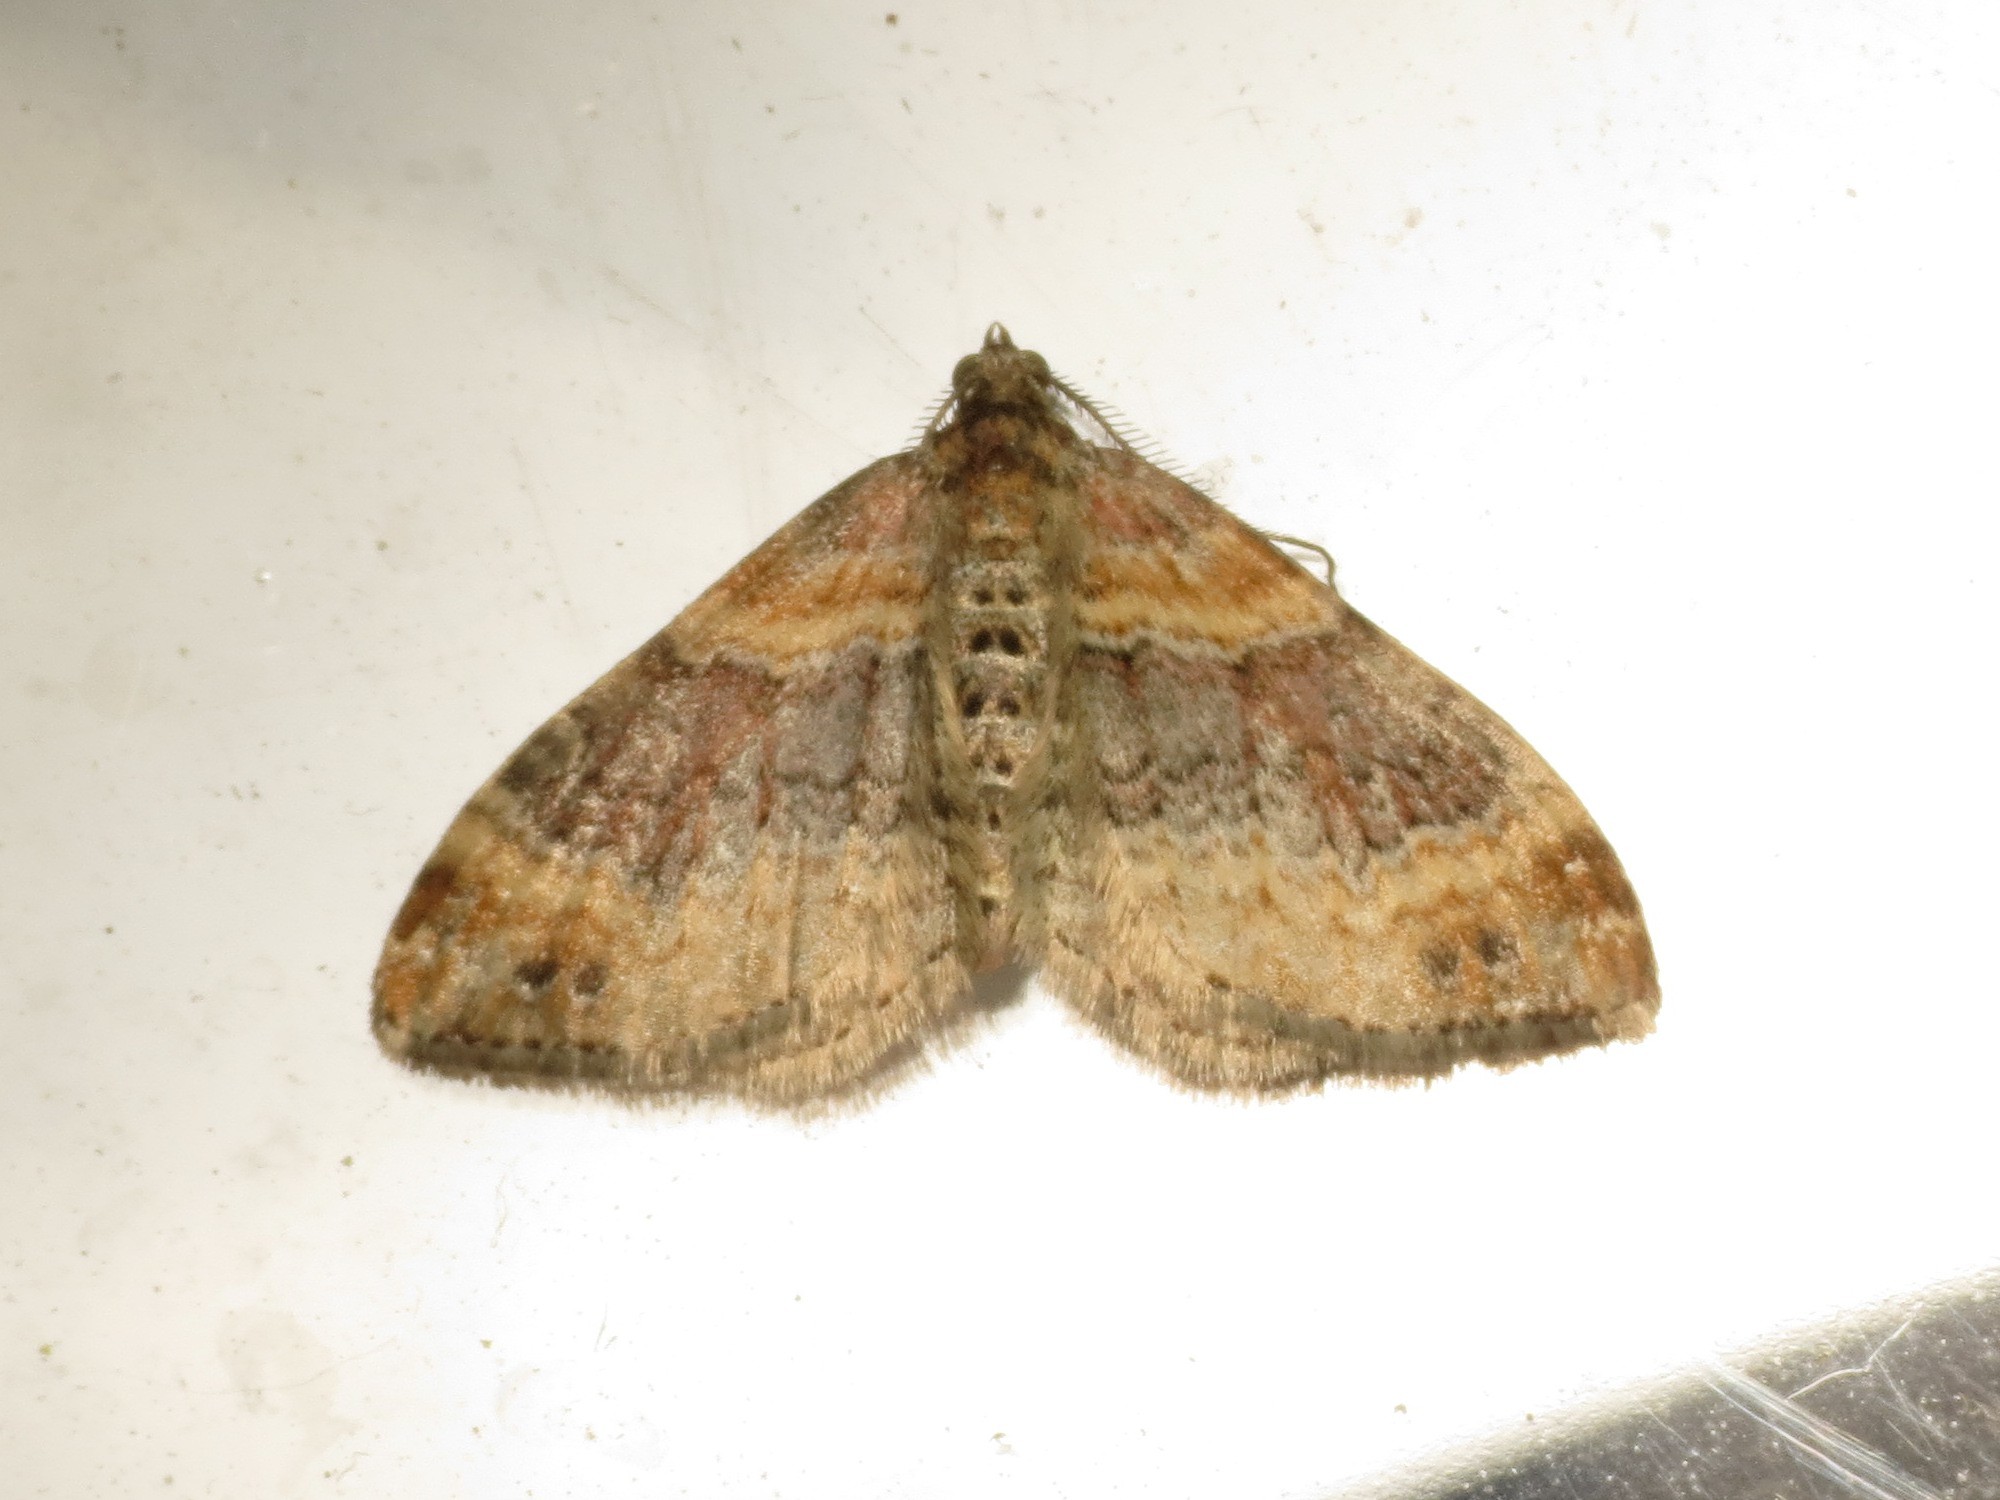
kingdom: Animalia
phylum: Arthropoda
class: Insecta
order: Lepidoptera
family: Geometridae
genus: Xanthorhoe
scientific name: Xanthorhoe spadicearia
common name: Red twin-spot carpet
